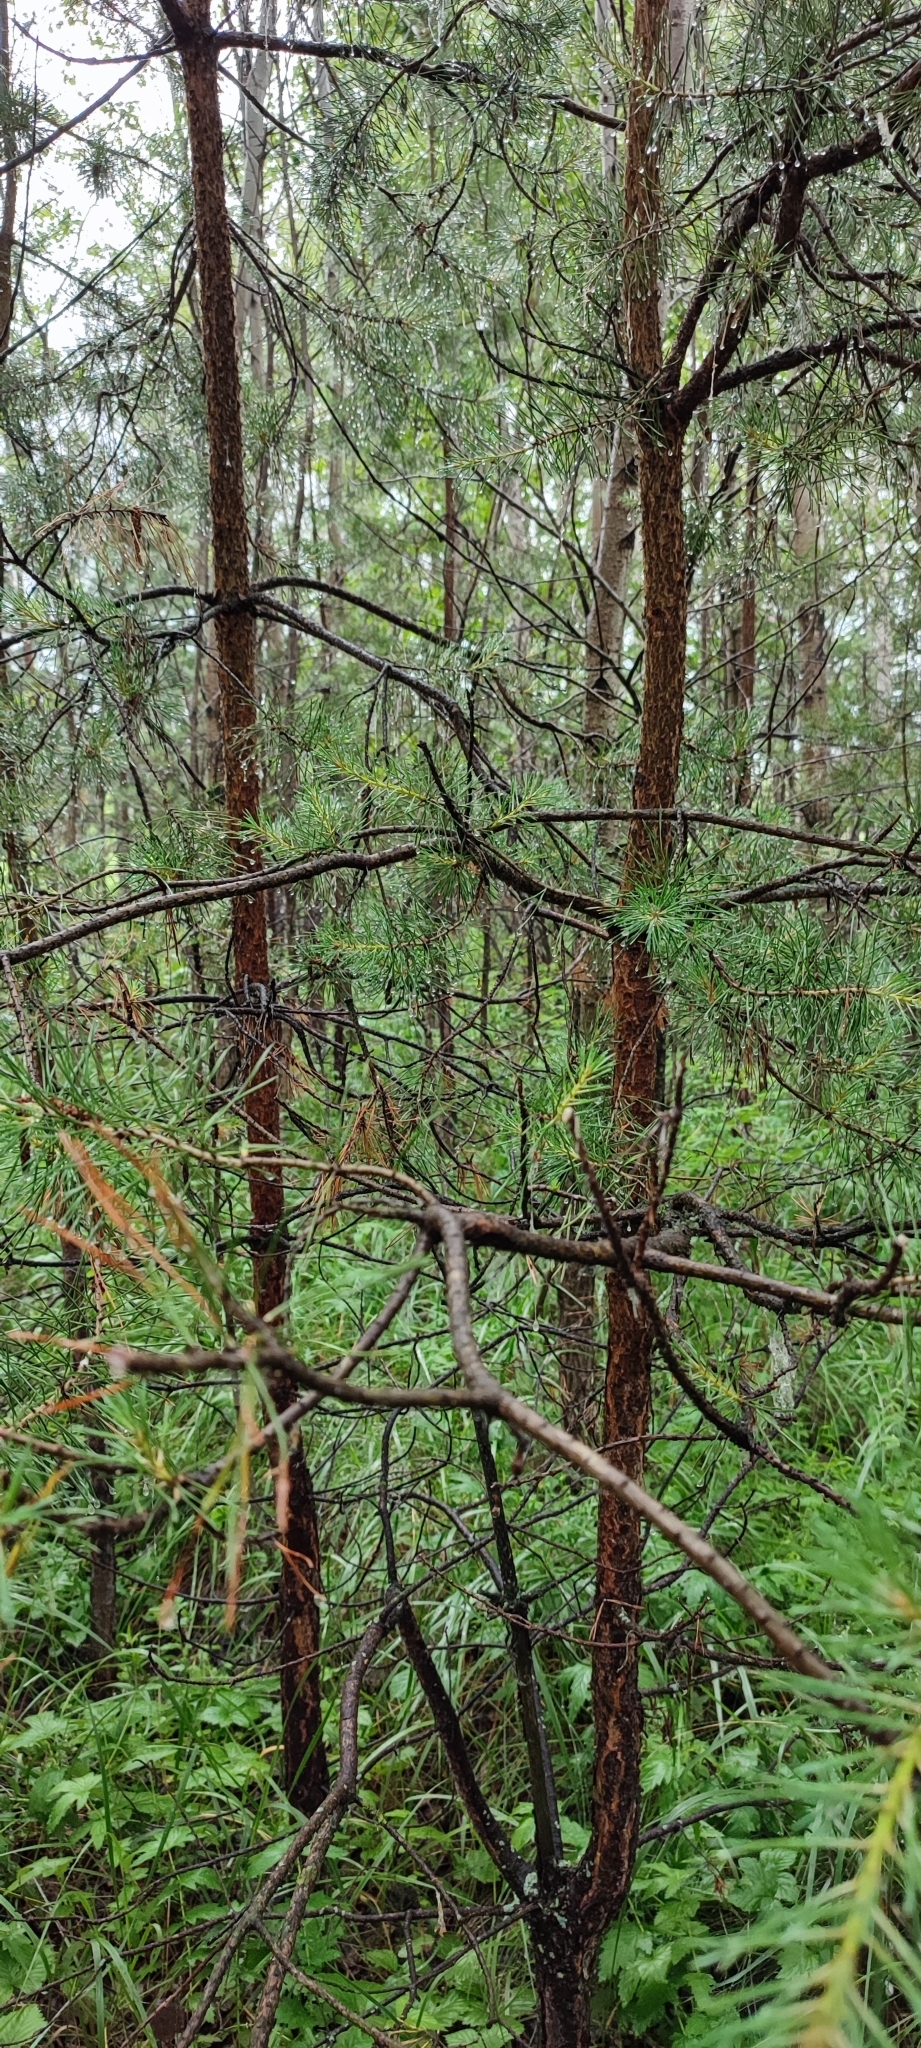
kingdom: Plantae
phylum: Tracheophyta
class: Pinopsida
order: Pinales
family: Pinaceae
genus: Pinus
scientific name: Pinus sylvestris
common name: Scots pine
